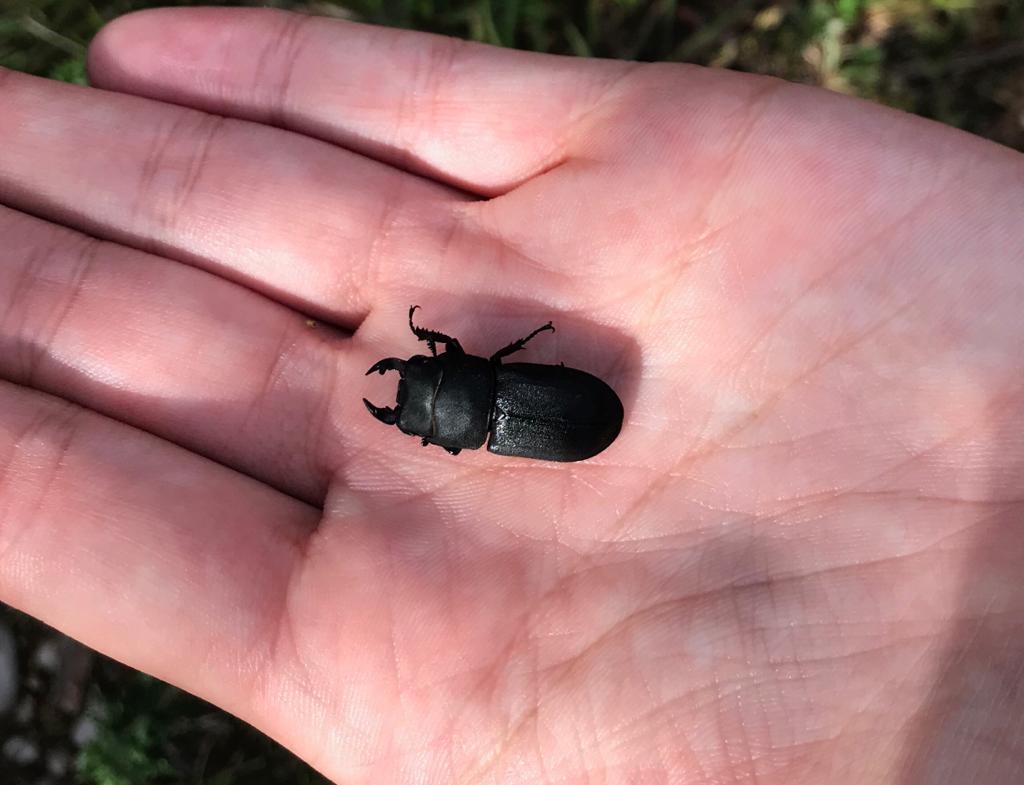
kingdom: Animalia
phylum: Arthropoda
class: Insecta
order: Coleoptera
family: Lucanidae
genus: Dorcus
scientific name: Dorcus parallelipipedus
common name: Lesser stag beetle
